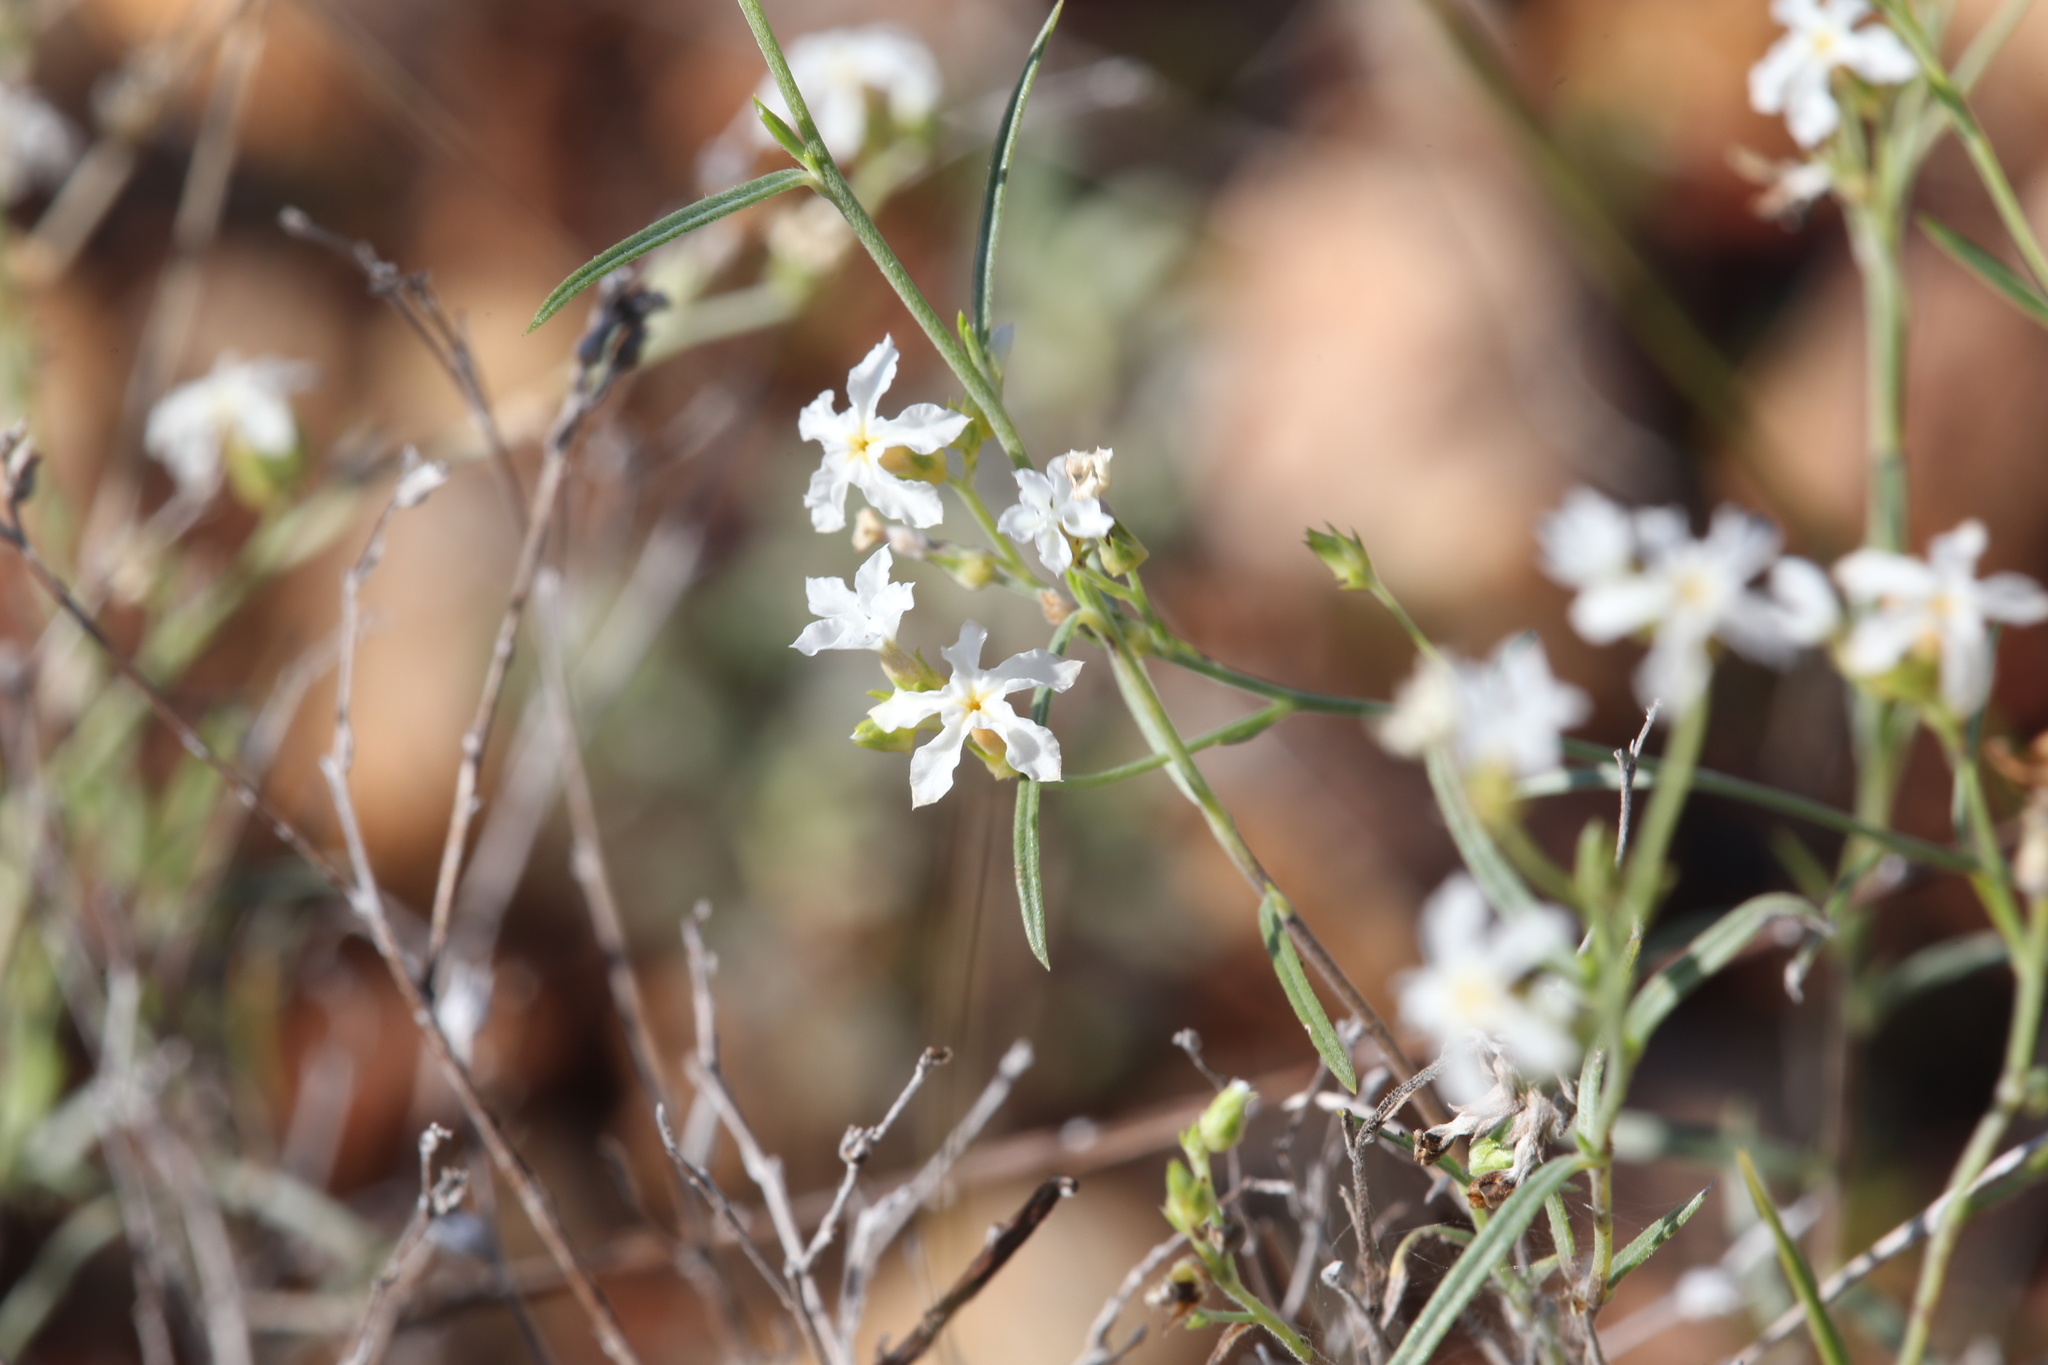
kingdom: Plantae
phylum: Tracheophyta
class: Magnoliopsida
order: Boraginales
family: Heliotropiaceae
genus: Euploca
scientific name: Euploca tenuifolia
